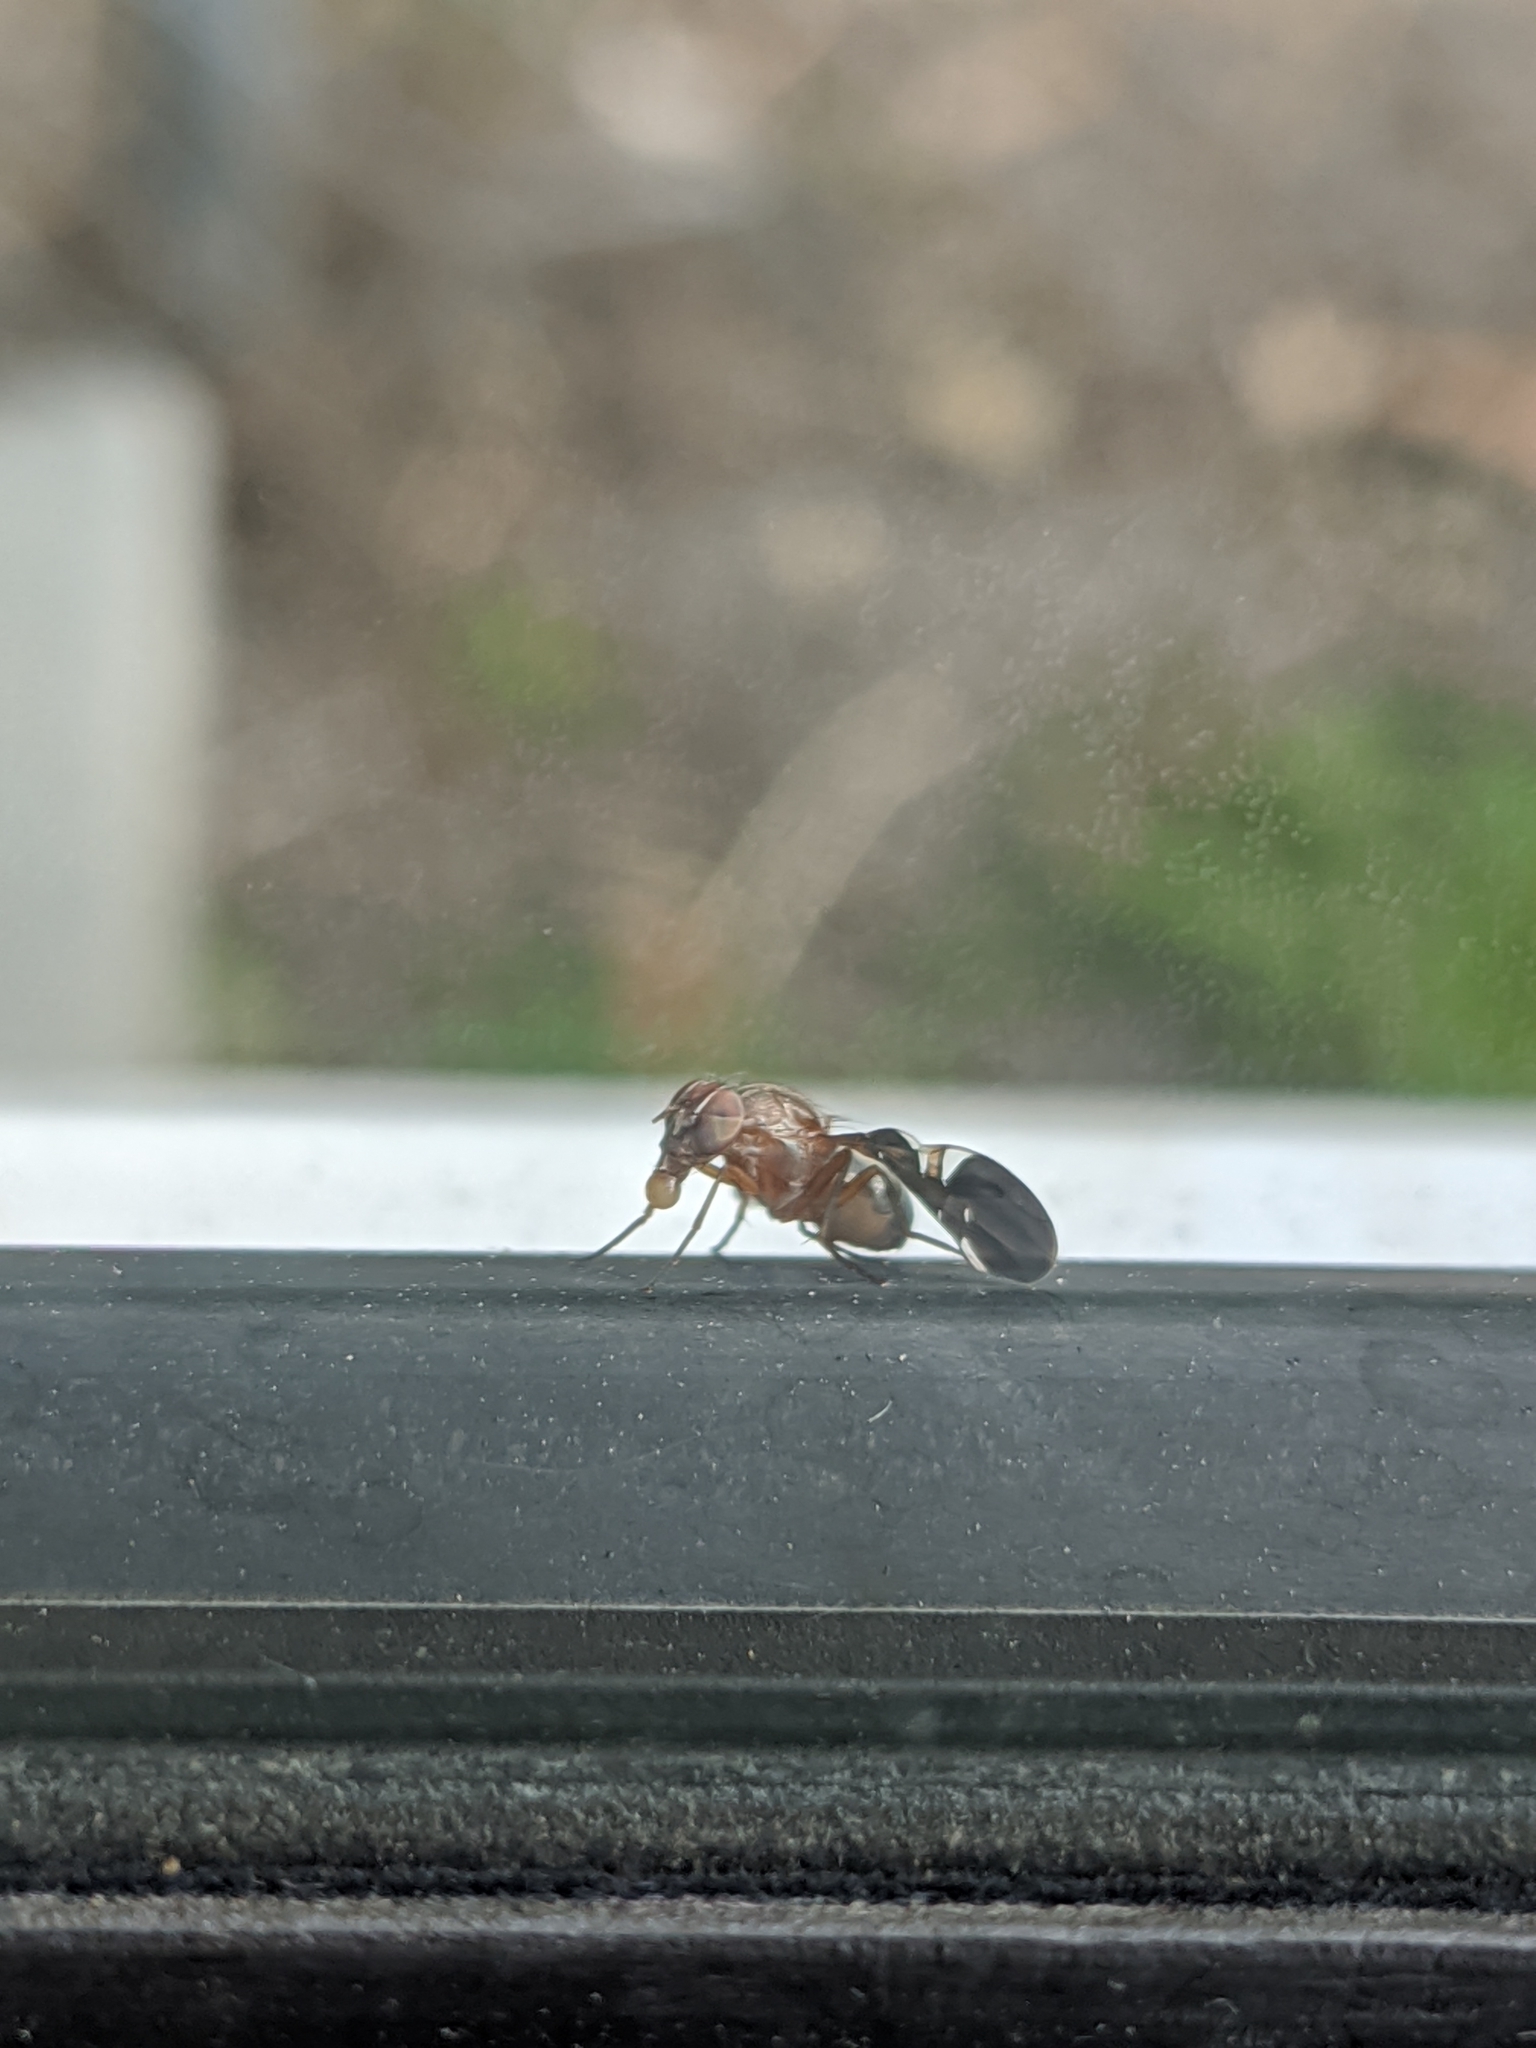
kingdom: Animalia
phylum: Arthropoda
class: Insecta
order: Diptera
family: Ulidiidae
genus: Delphinia
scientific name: Delphinia picta
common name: Common picture-winged fly
